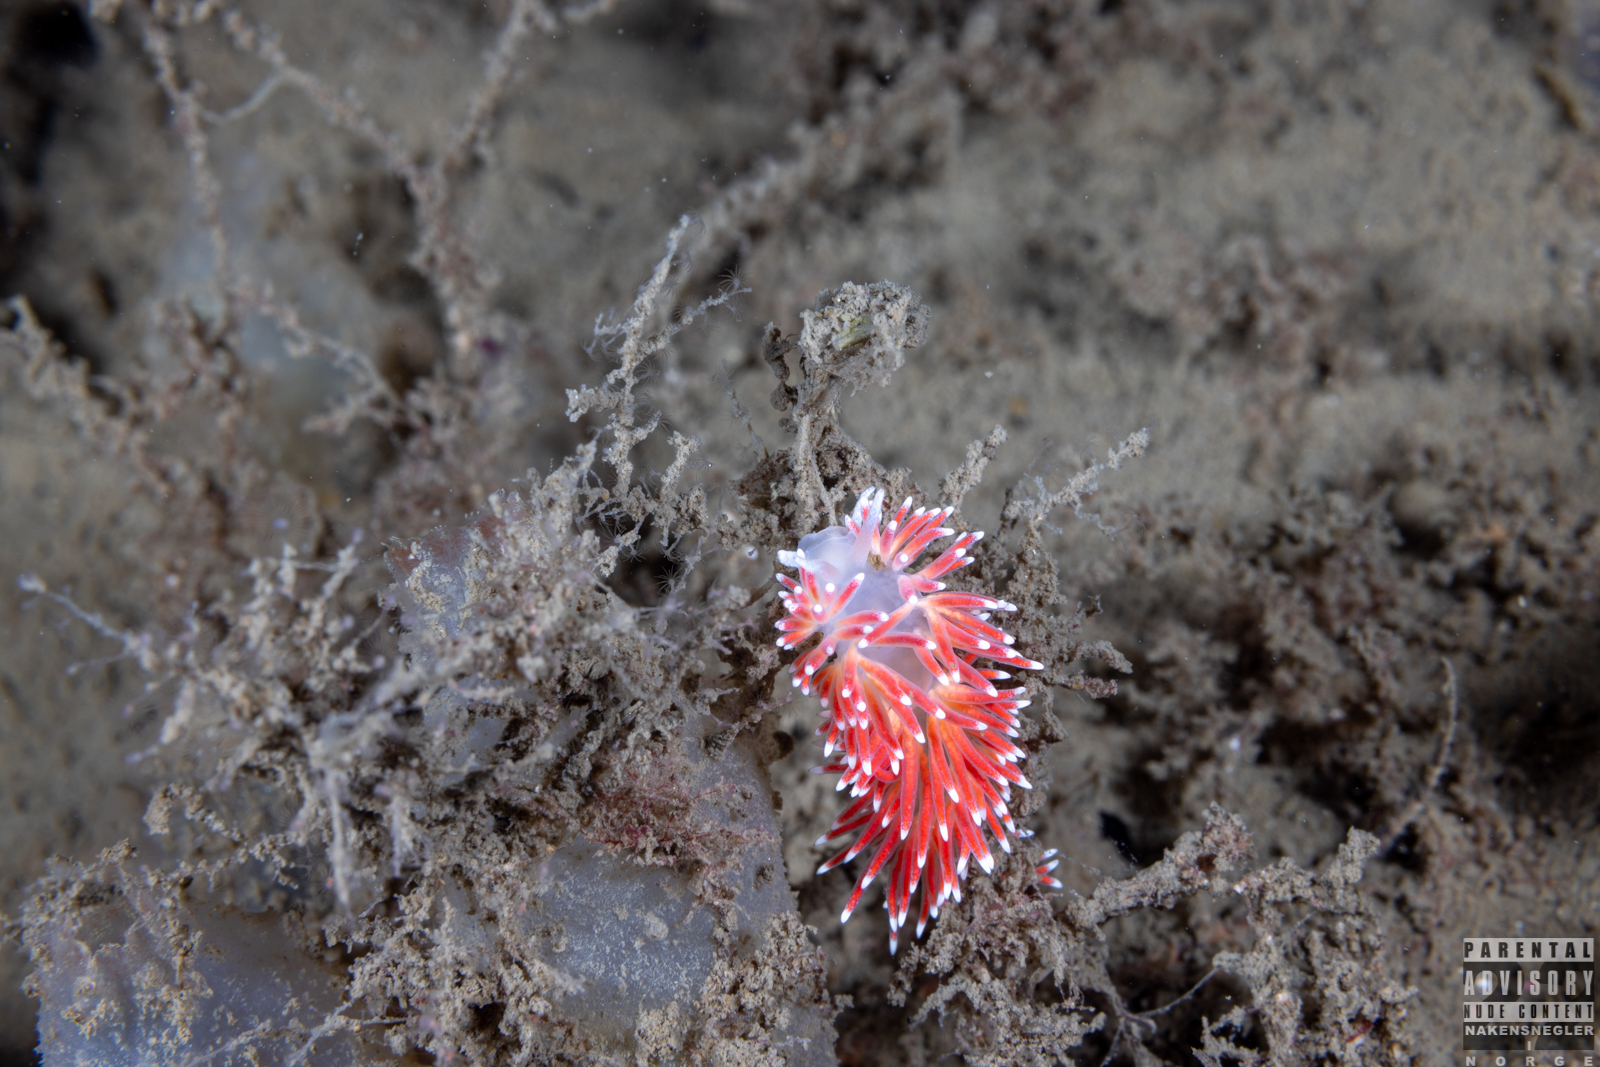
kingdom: Animalia
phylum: Mollusca
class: Gastropoda
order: Nudibranchia
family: Flabellinidae
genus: Carronella
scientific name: Carronella pellucida
